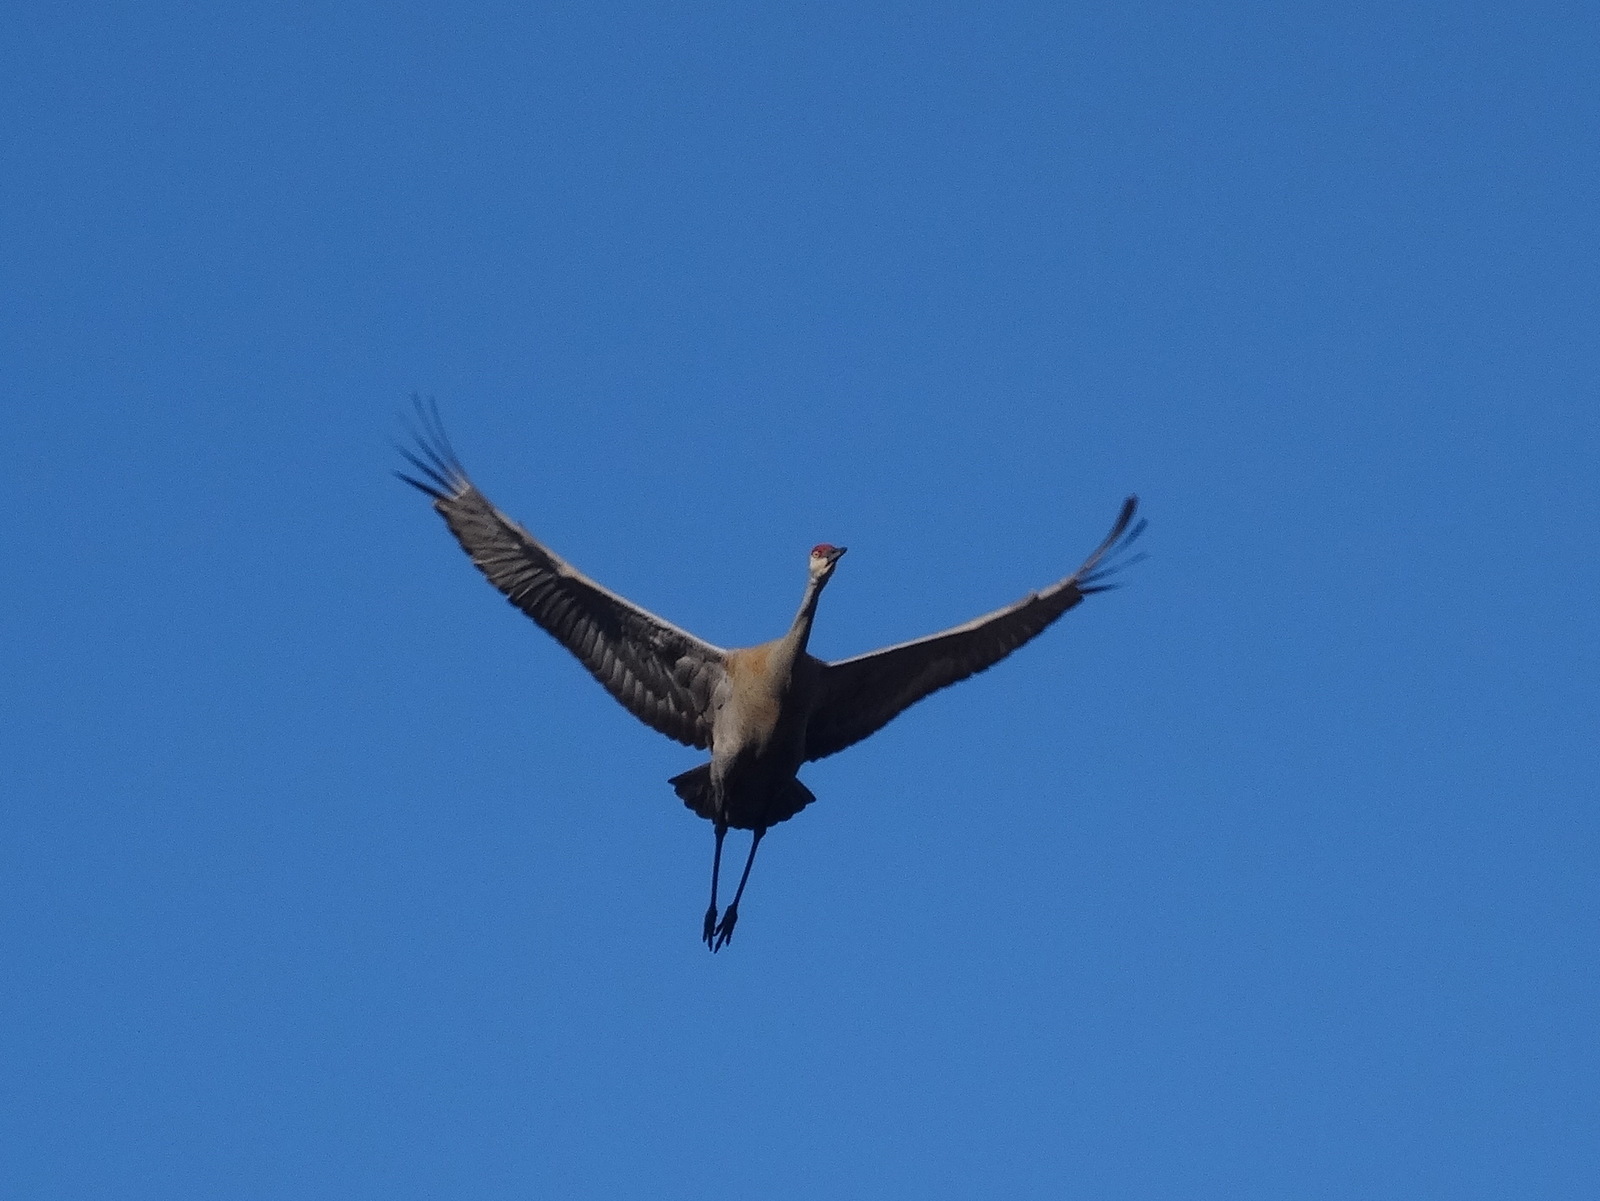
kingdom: Animalia
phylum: Chordata
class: Aves
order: Gruiformes
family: Gruidae
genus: Grus
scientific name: Grus canadensis
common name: Sandhill crane
